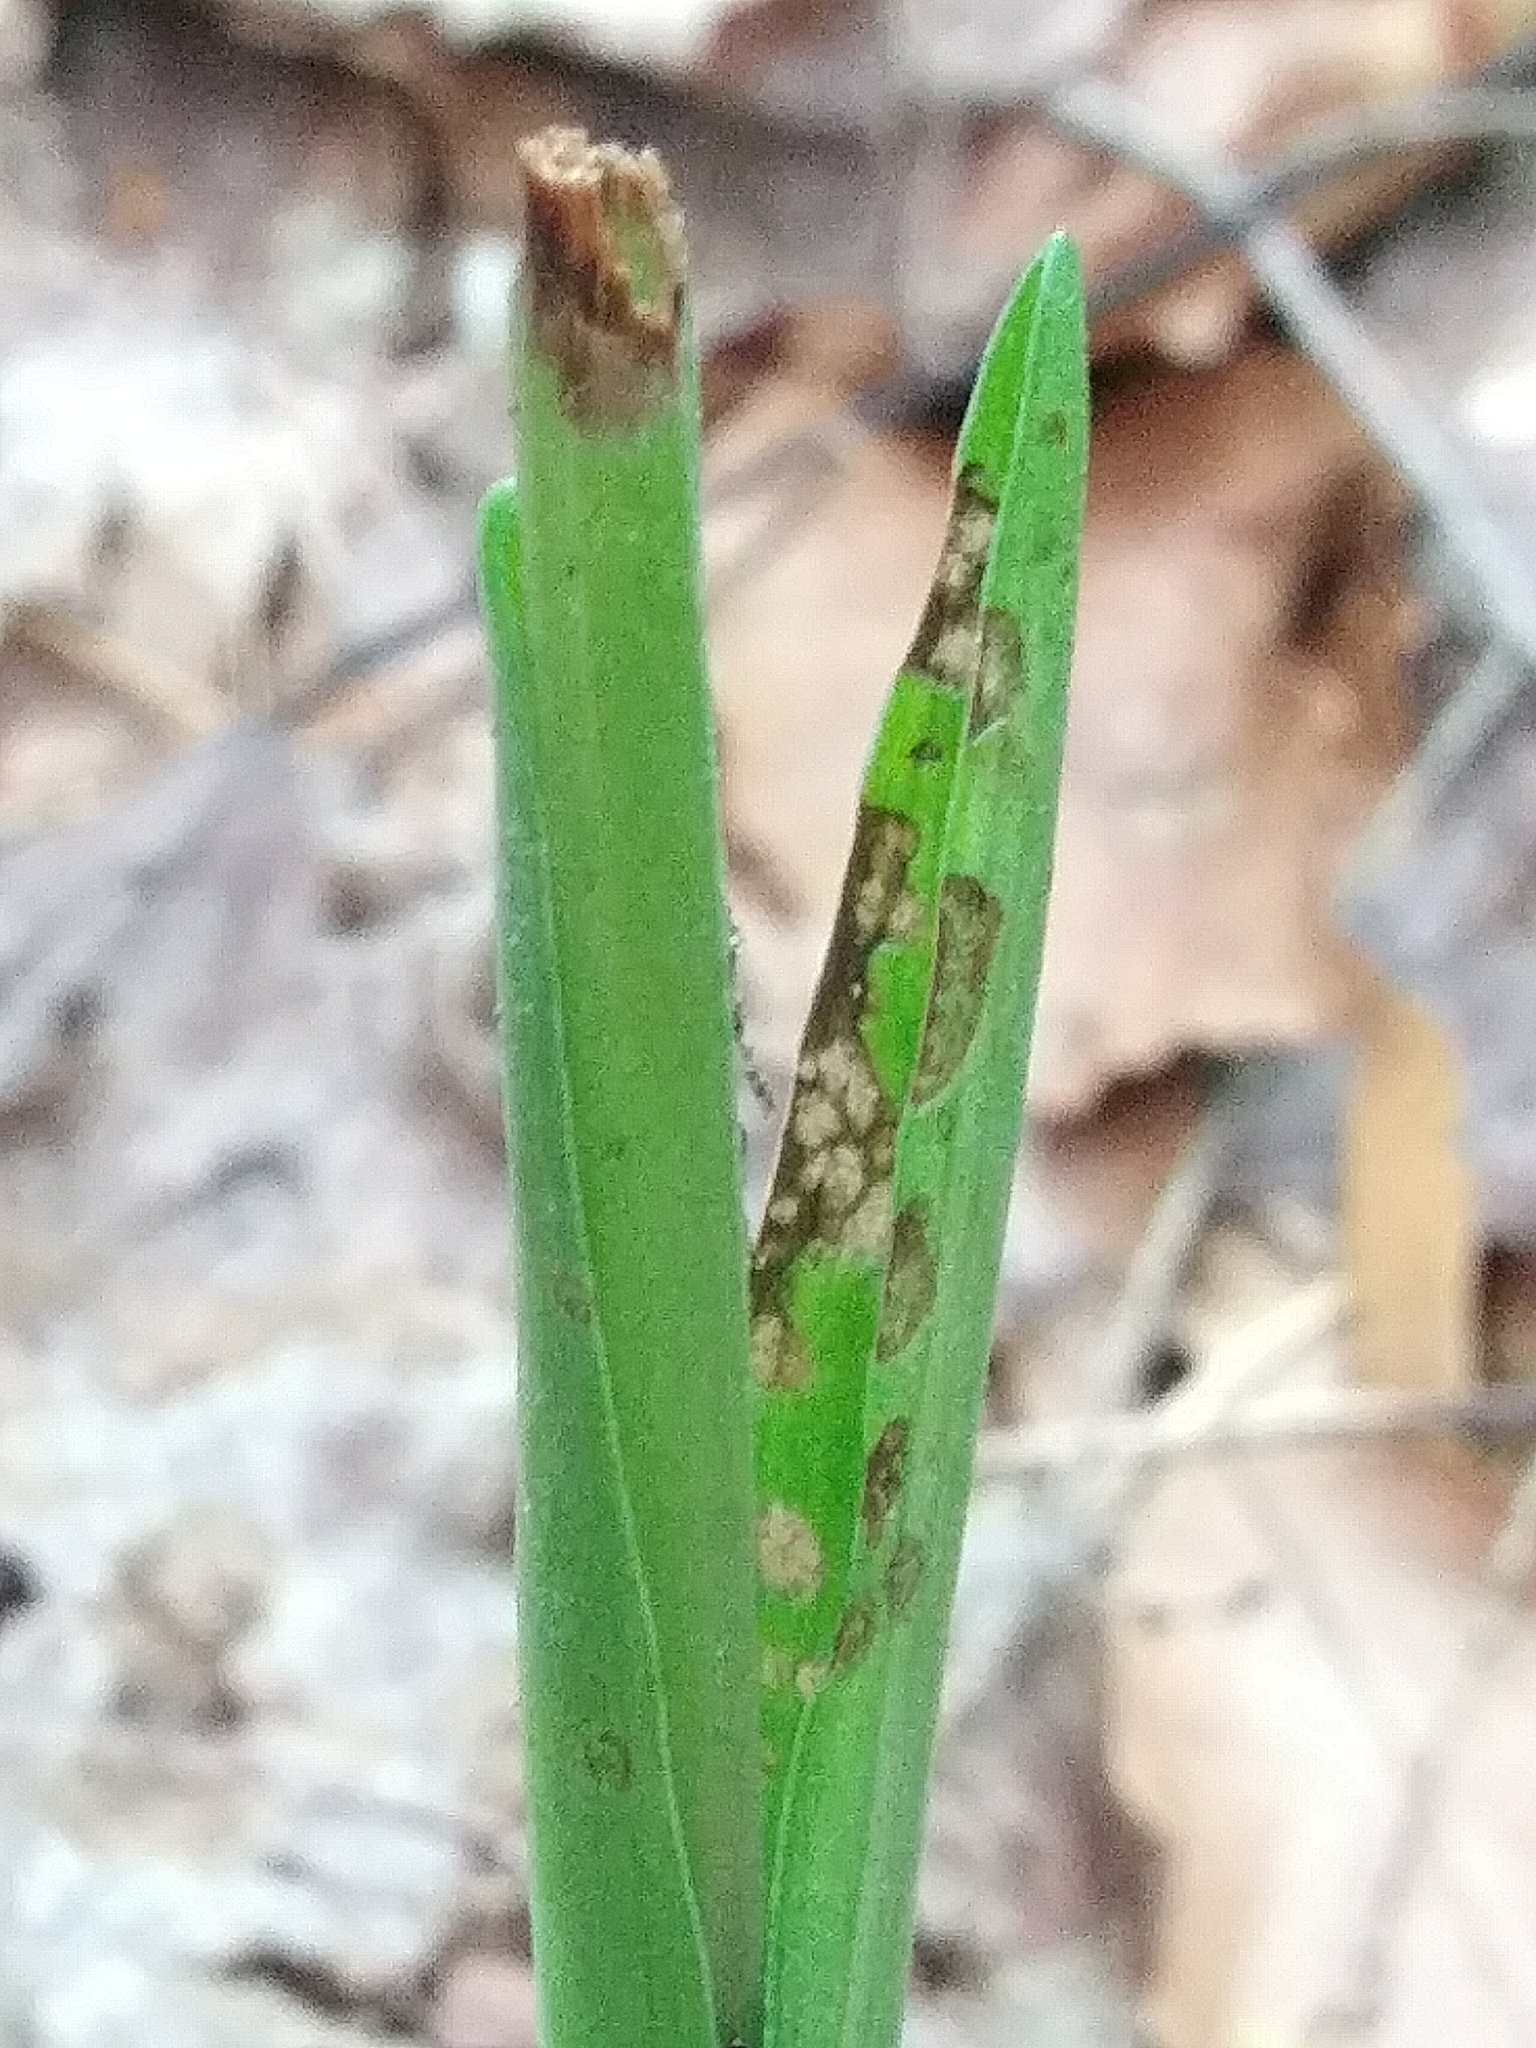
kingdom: Plantae
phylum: Tracheophyta
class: Liliopsida
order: Asparagales
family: Orchidaceae
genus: Platanthera
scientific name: Platanthera aquilonis
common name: Northern green orchid
